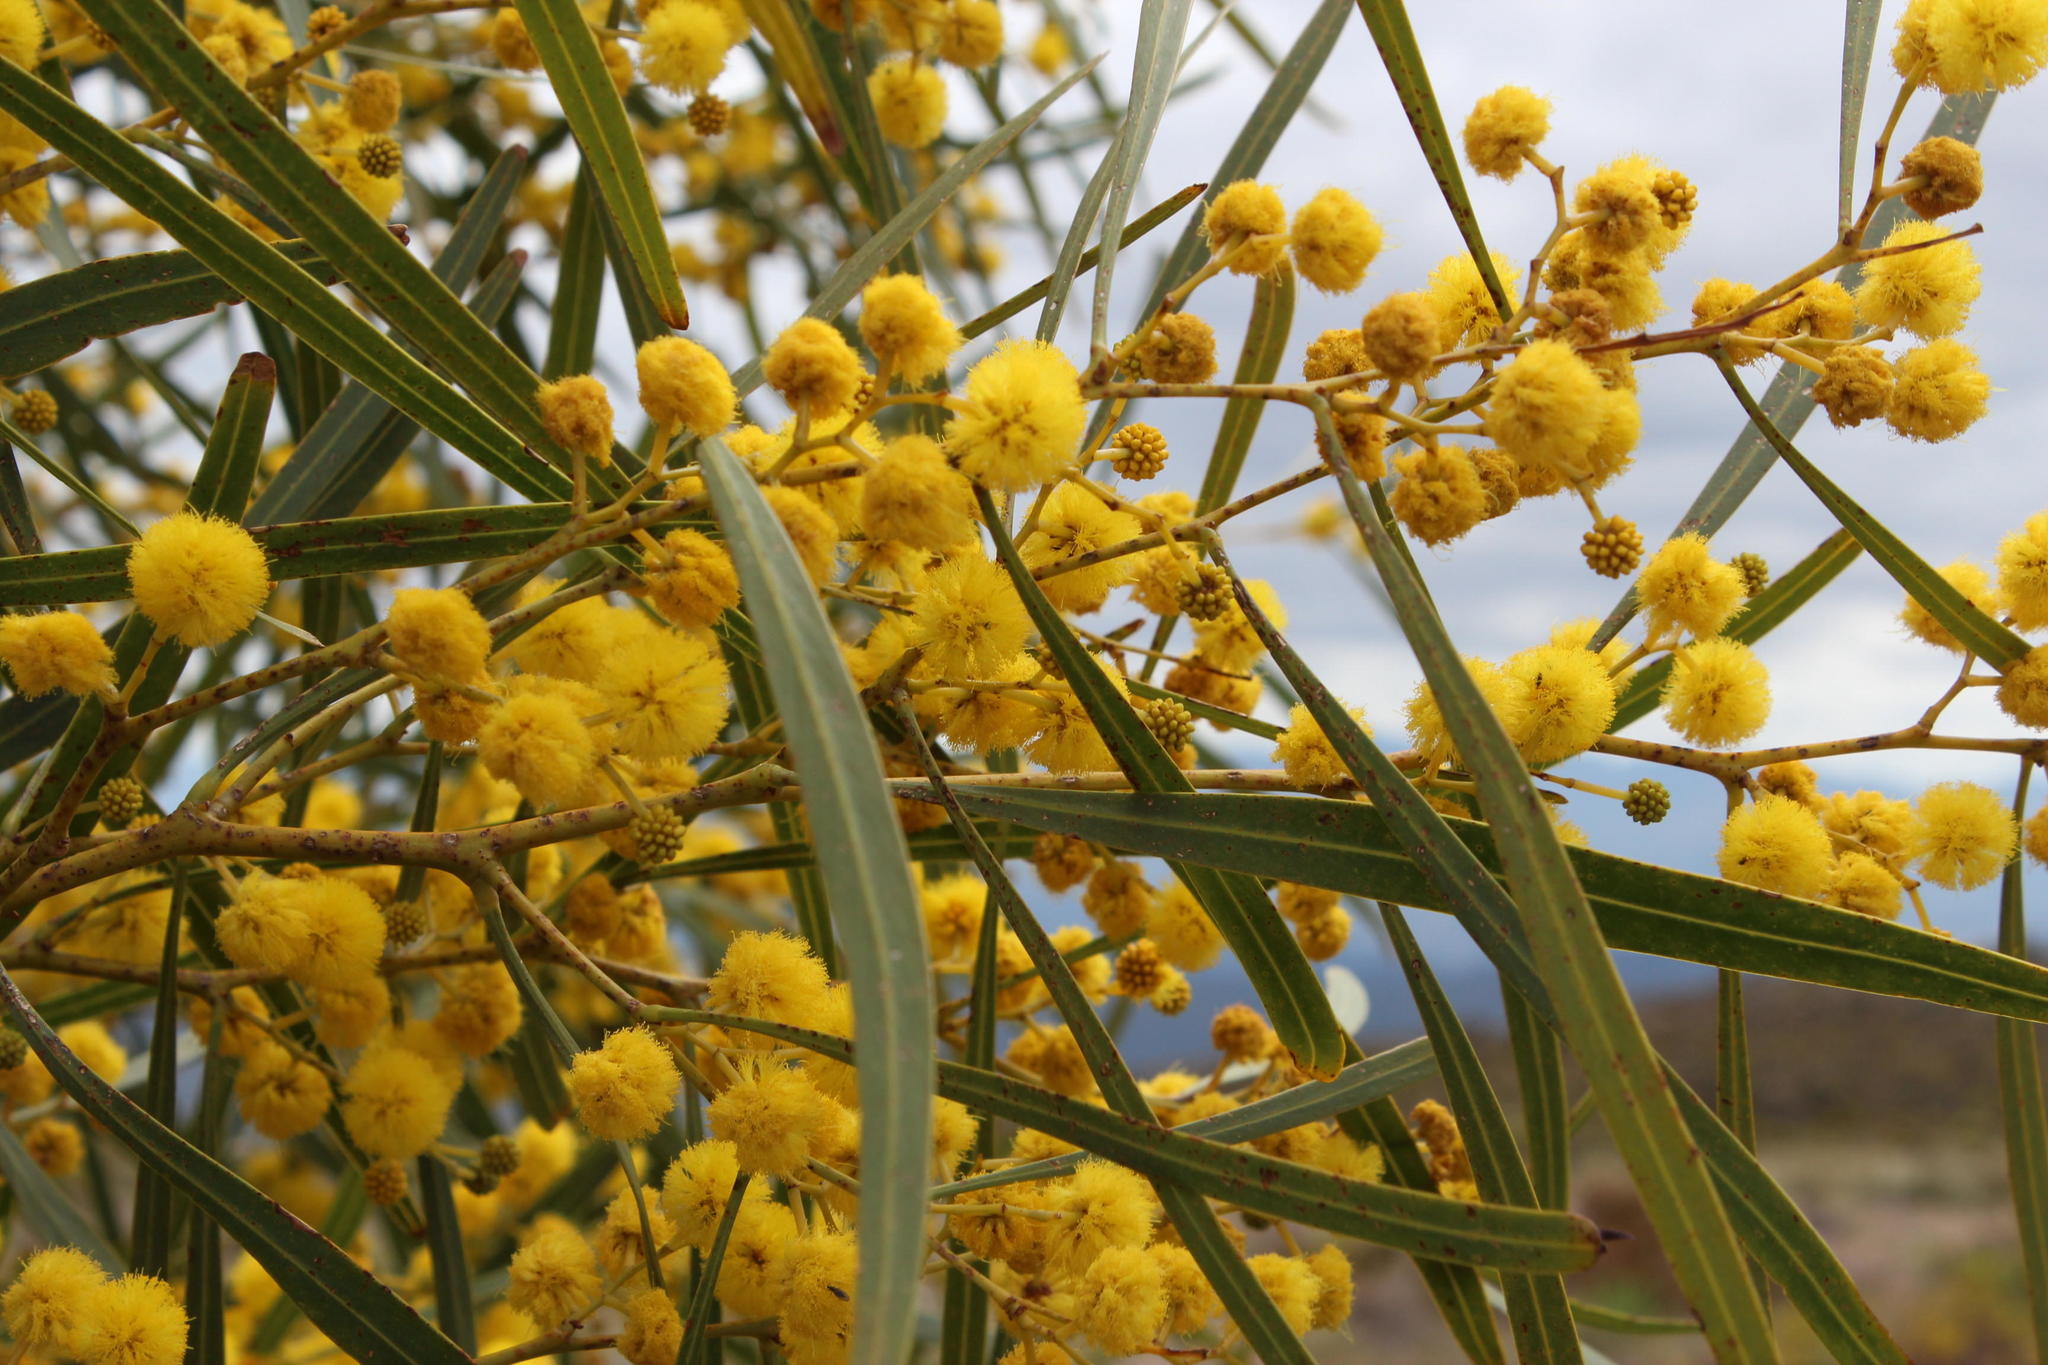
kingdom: Plantae
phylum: Tracheophyta
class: Magnoliopsida
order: Fabales
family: Fabaceae
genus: Acacia
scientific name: Acacia saligna
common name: Orange wattle
